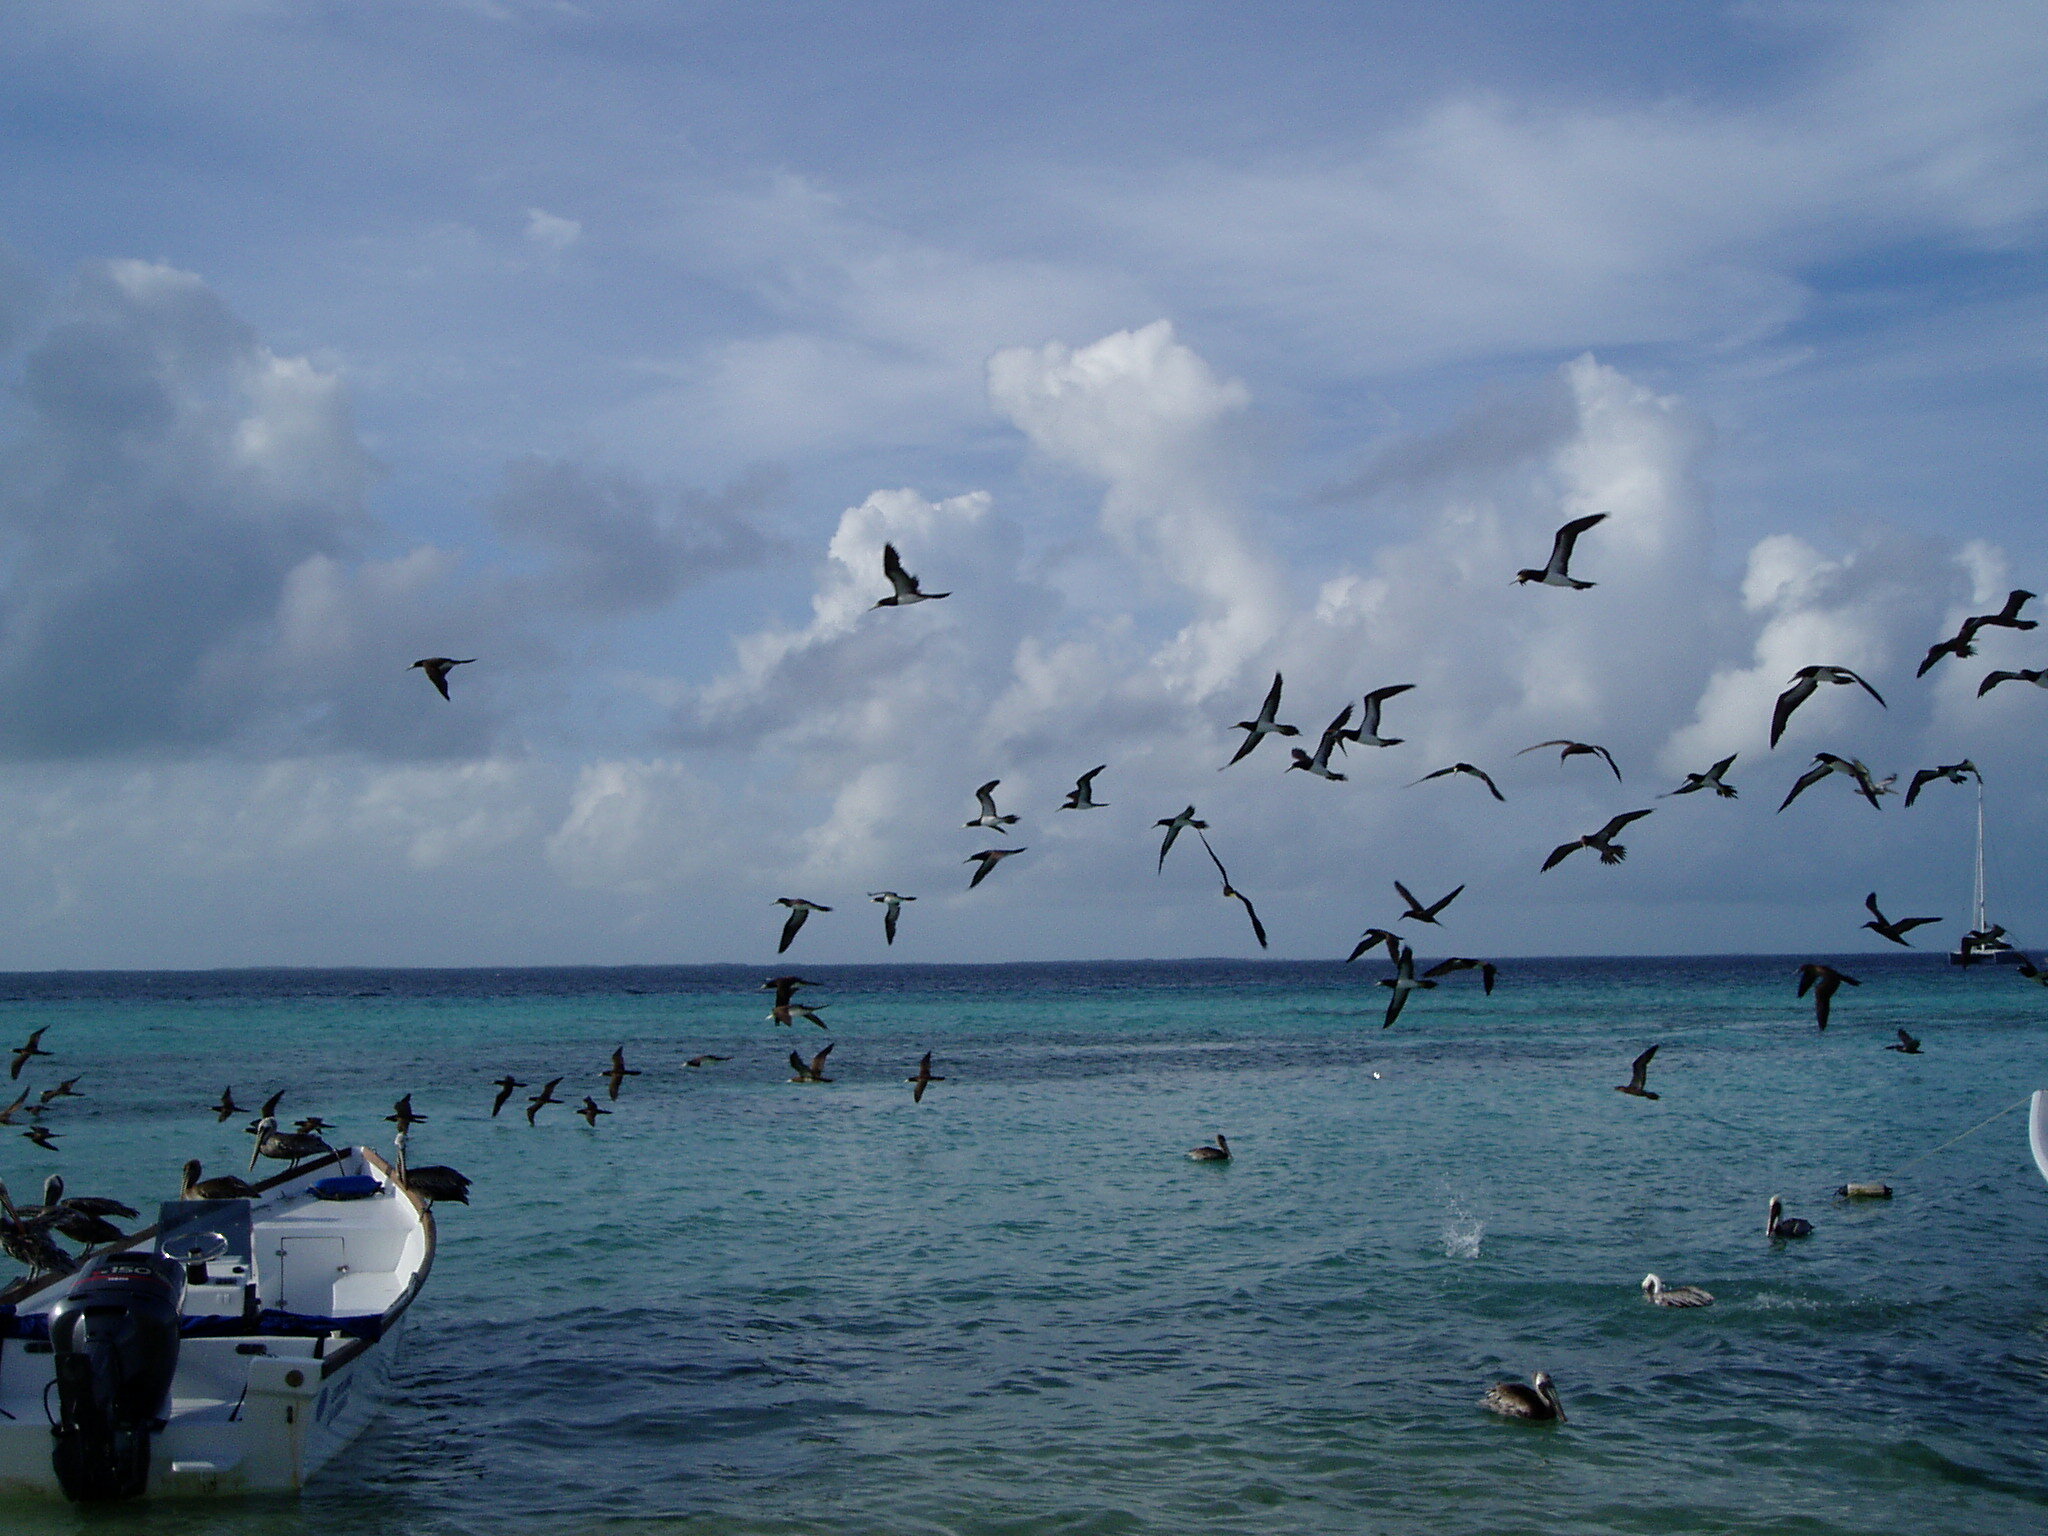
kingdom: Animalia
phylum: Chordata
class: Aves
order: Suliformes
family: Sulidae
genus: Sula
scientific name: Sula leucogaster
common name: Brown booby
